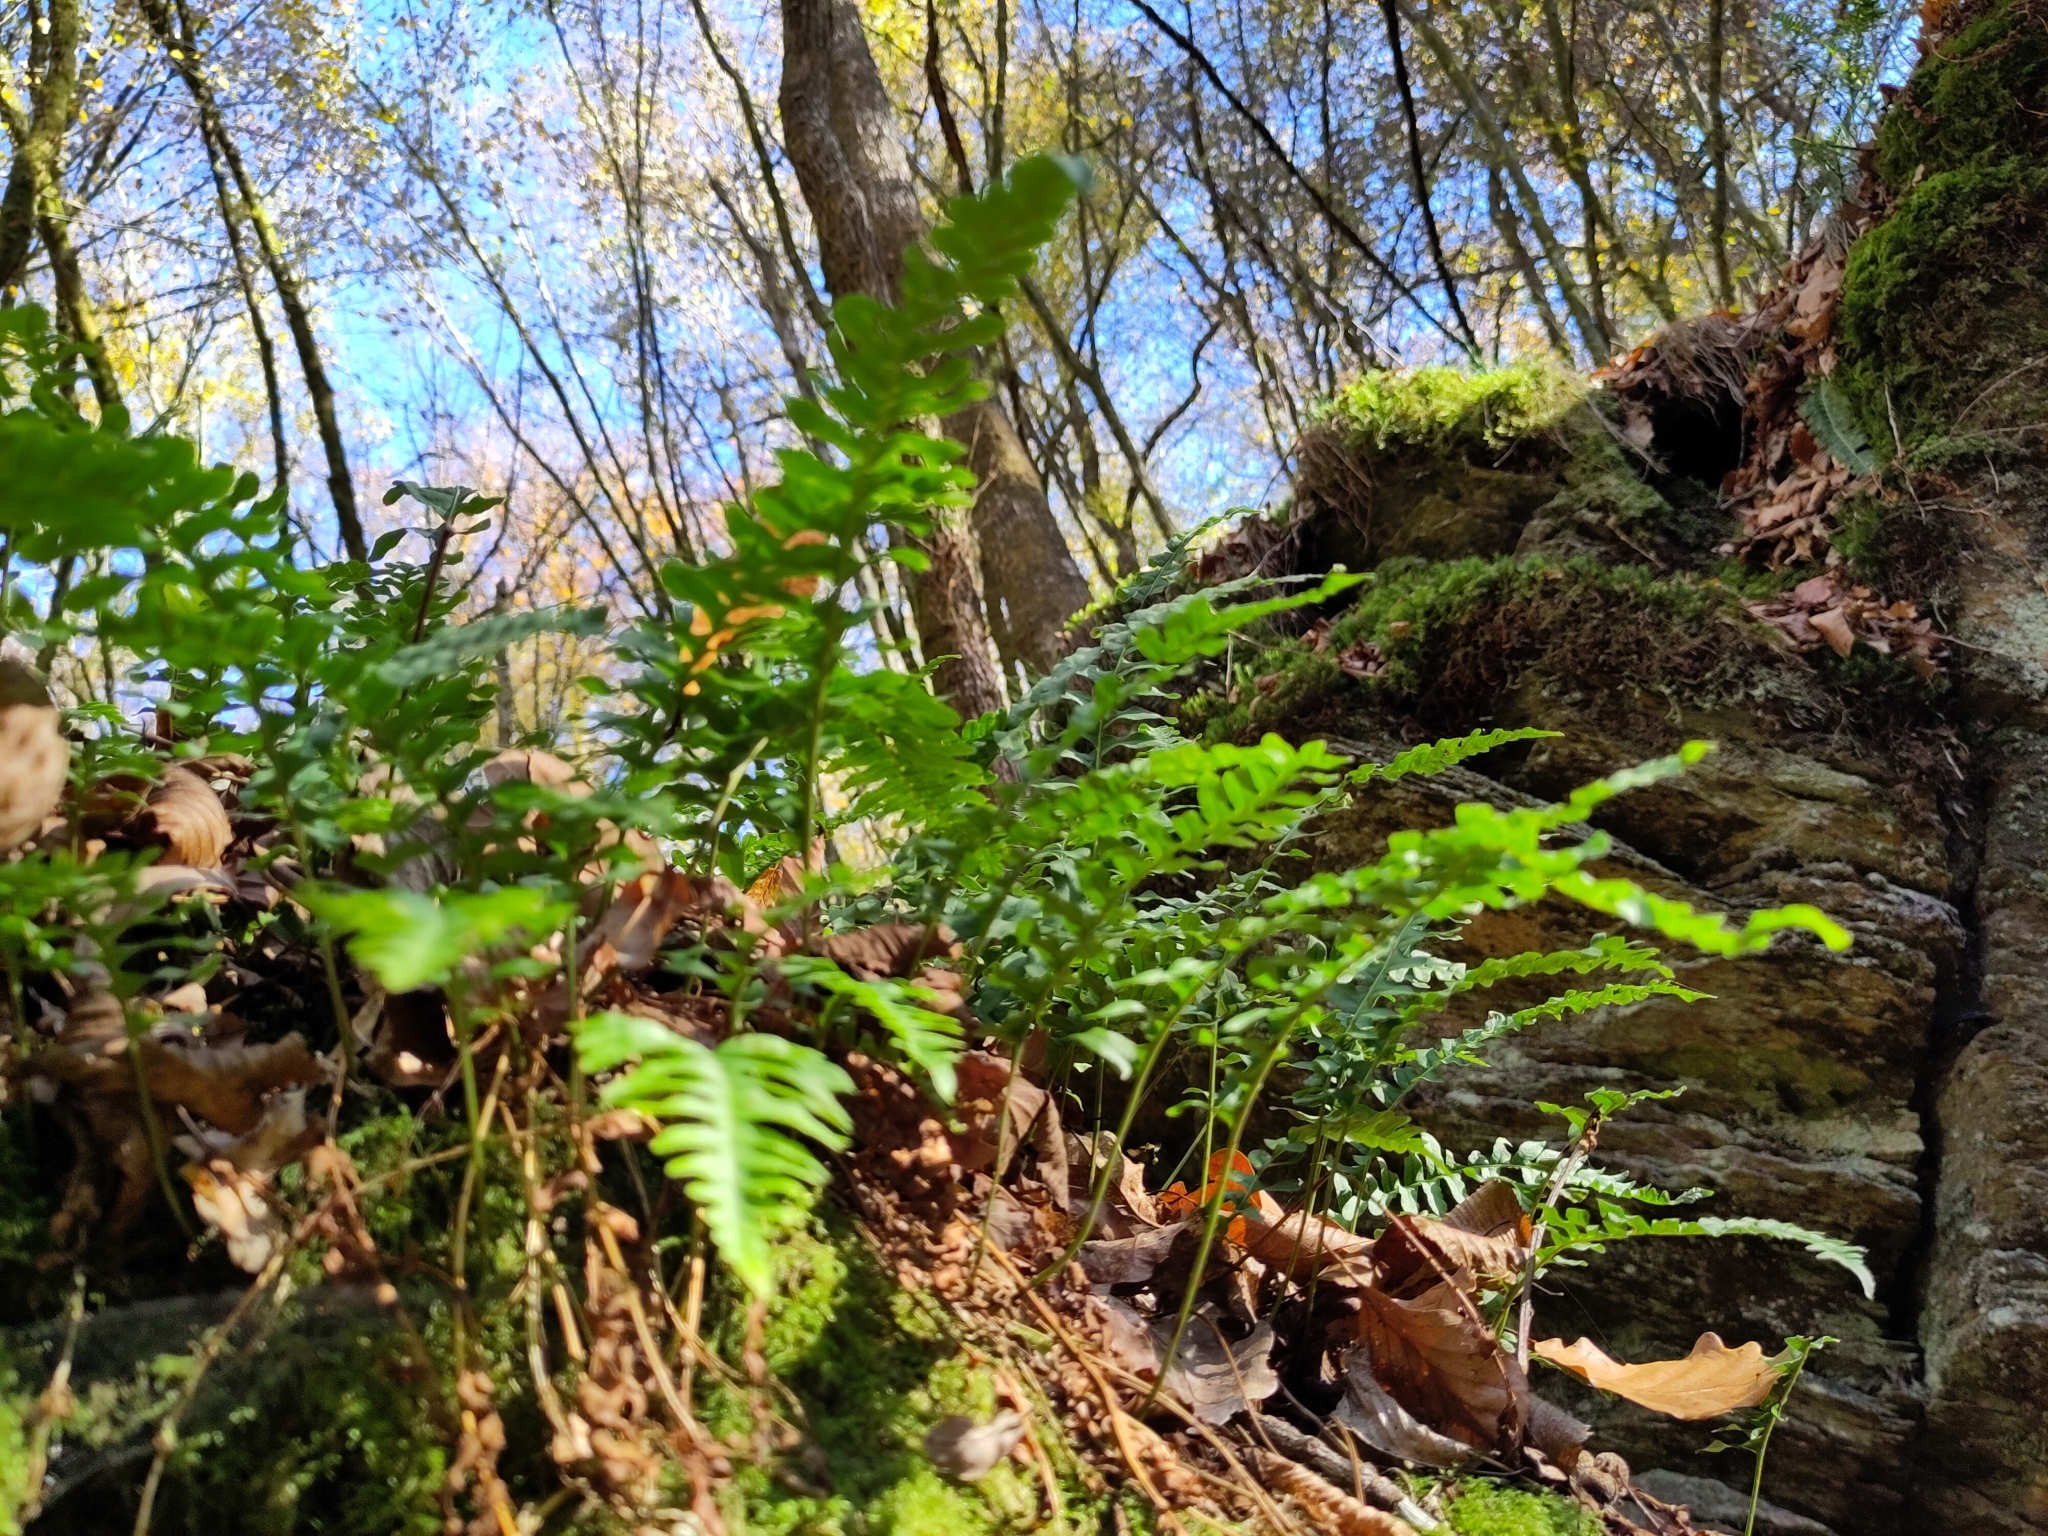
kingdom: Plantae
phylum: Tracheophyta
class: Polypodiopsida
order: Polypodiales
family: Polypodiaceae
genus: Polypodium
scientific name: Polypodium
